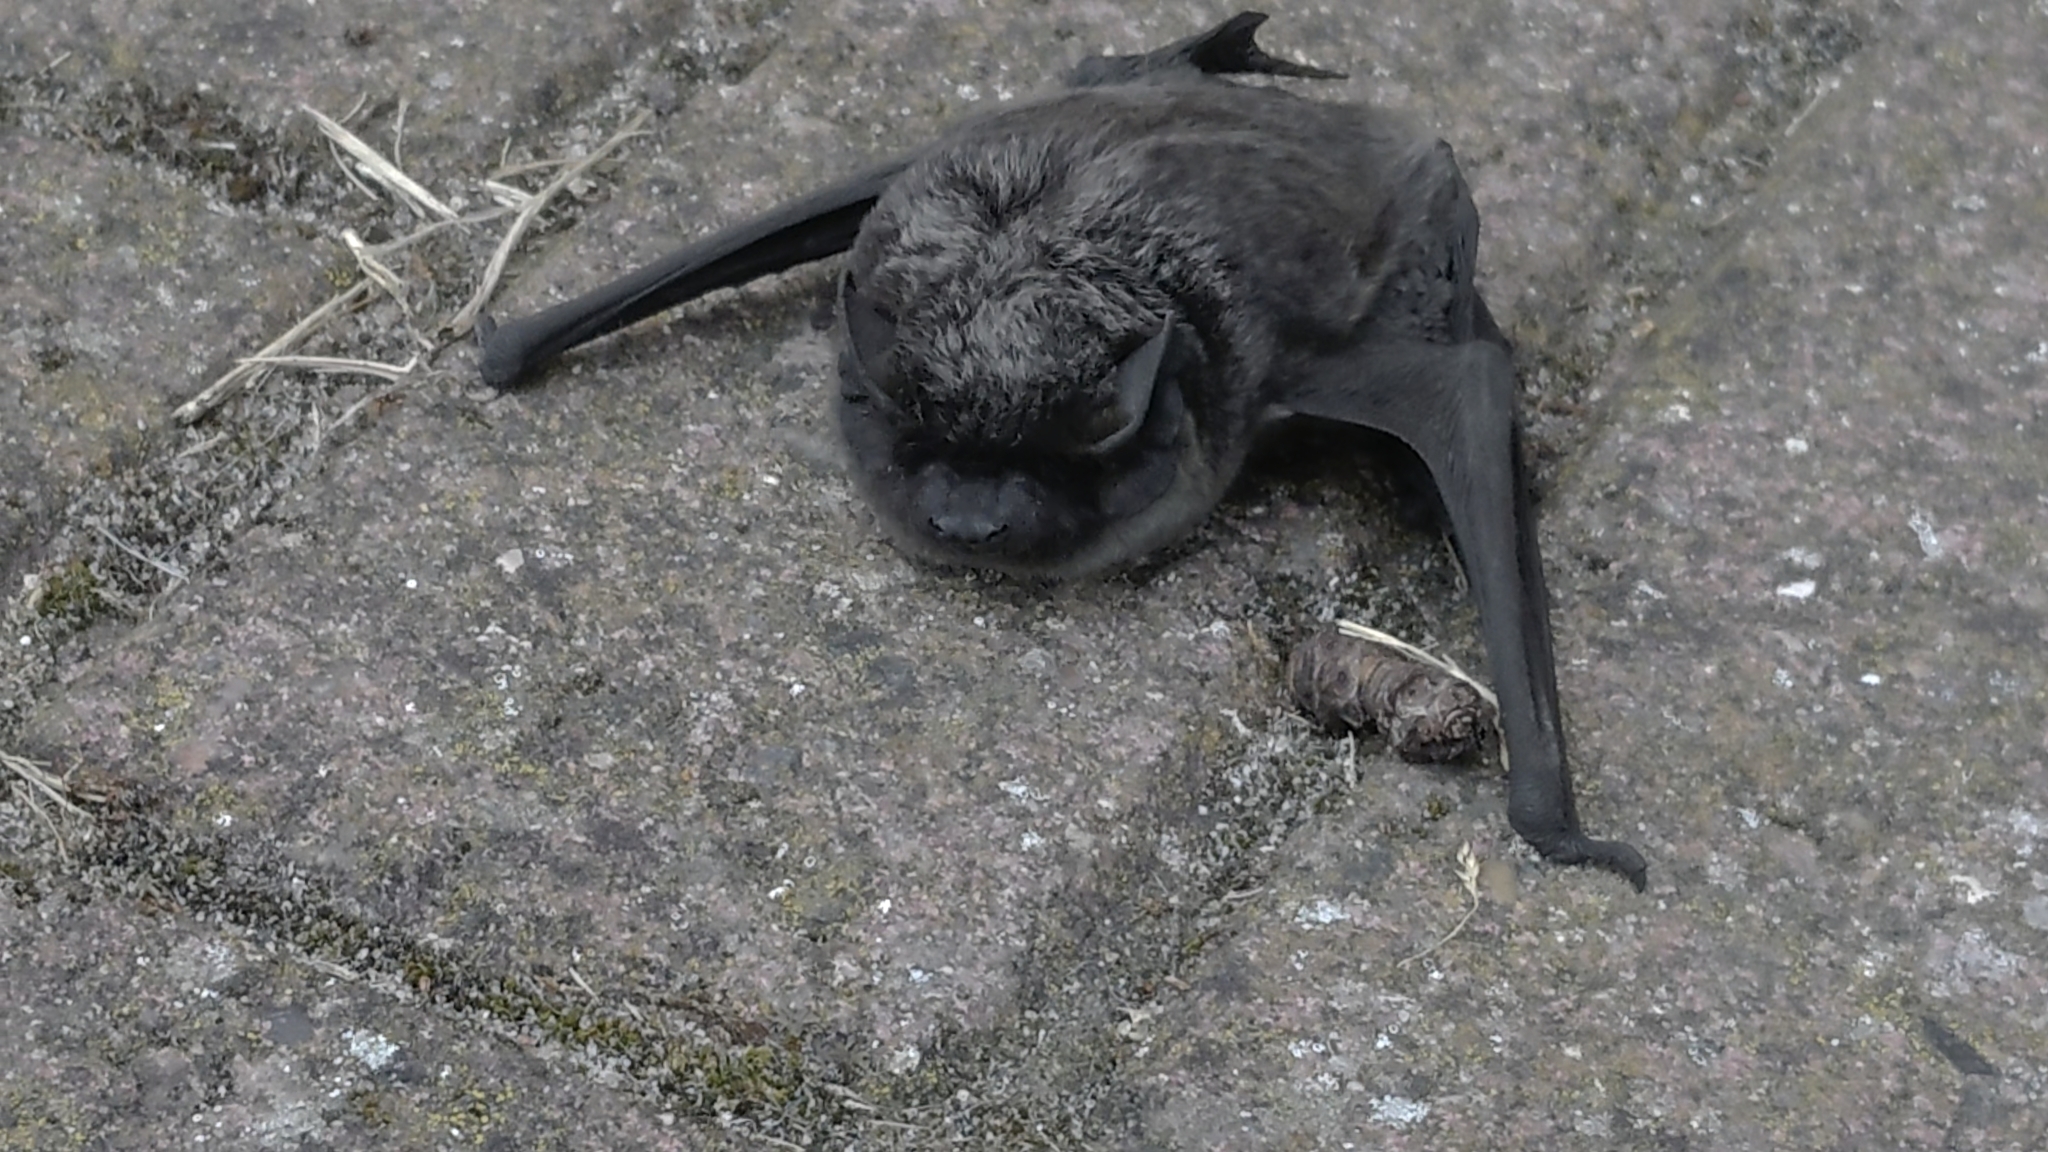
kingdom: Animalia
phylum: Chordata
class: Mammalia
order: Chiroptera
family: Vespertilionidae
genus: Vespertilio
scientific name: Vespertilio murinus
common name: Particolored bat
